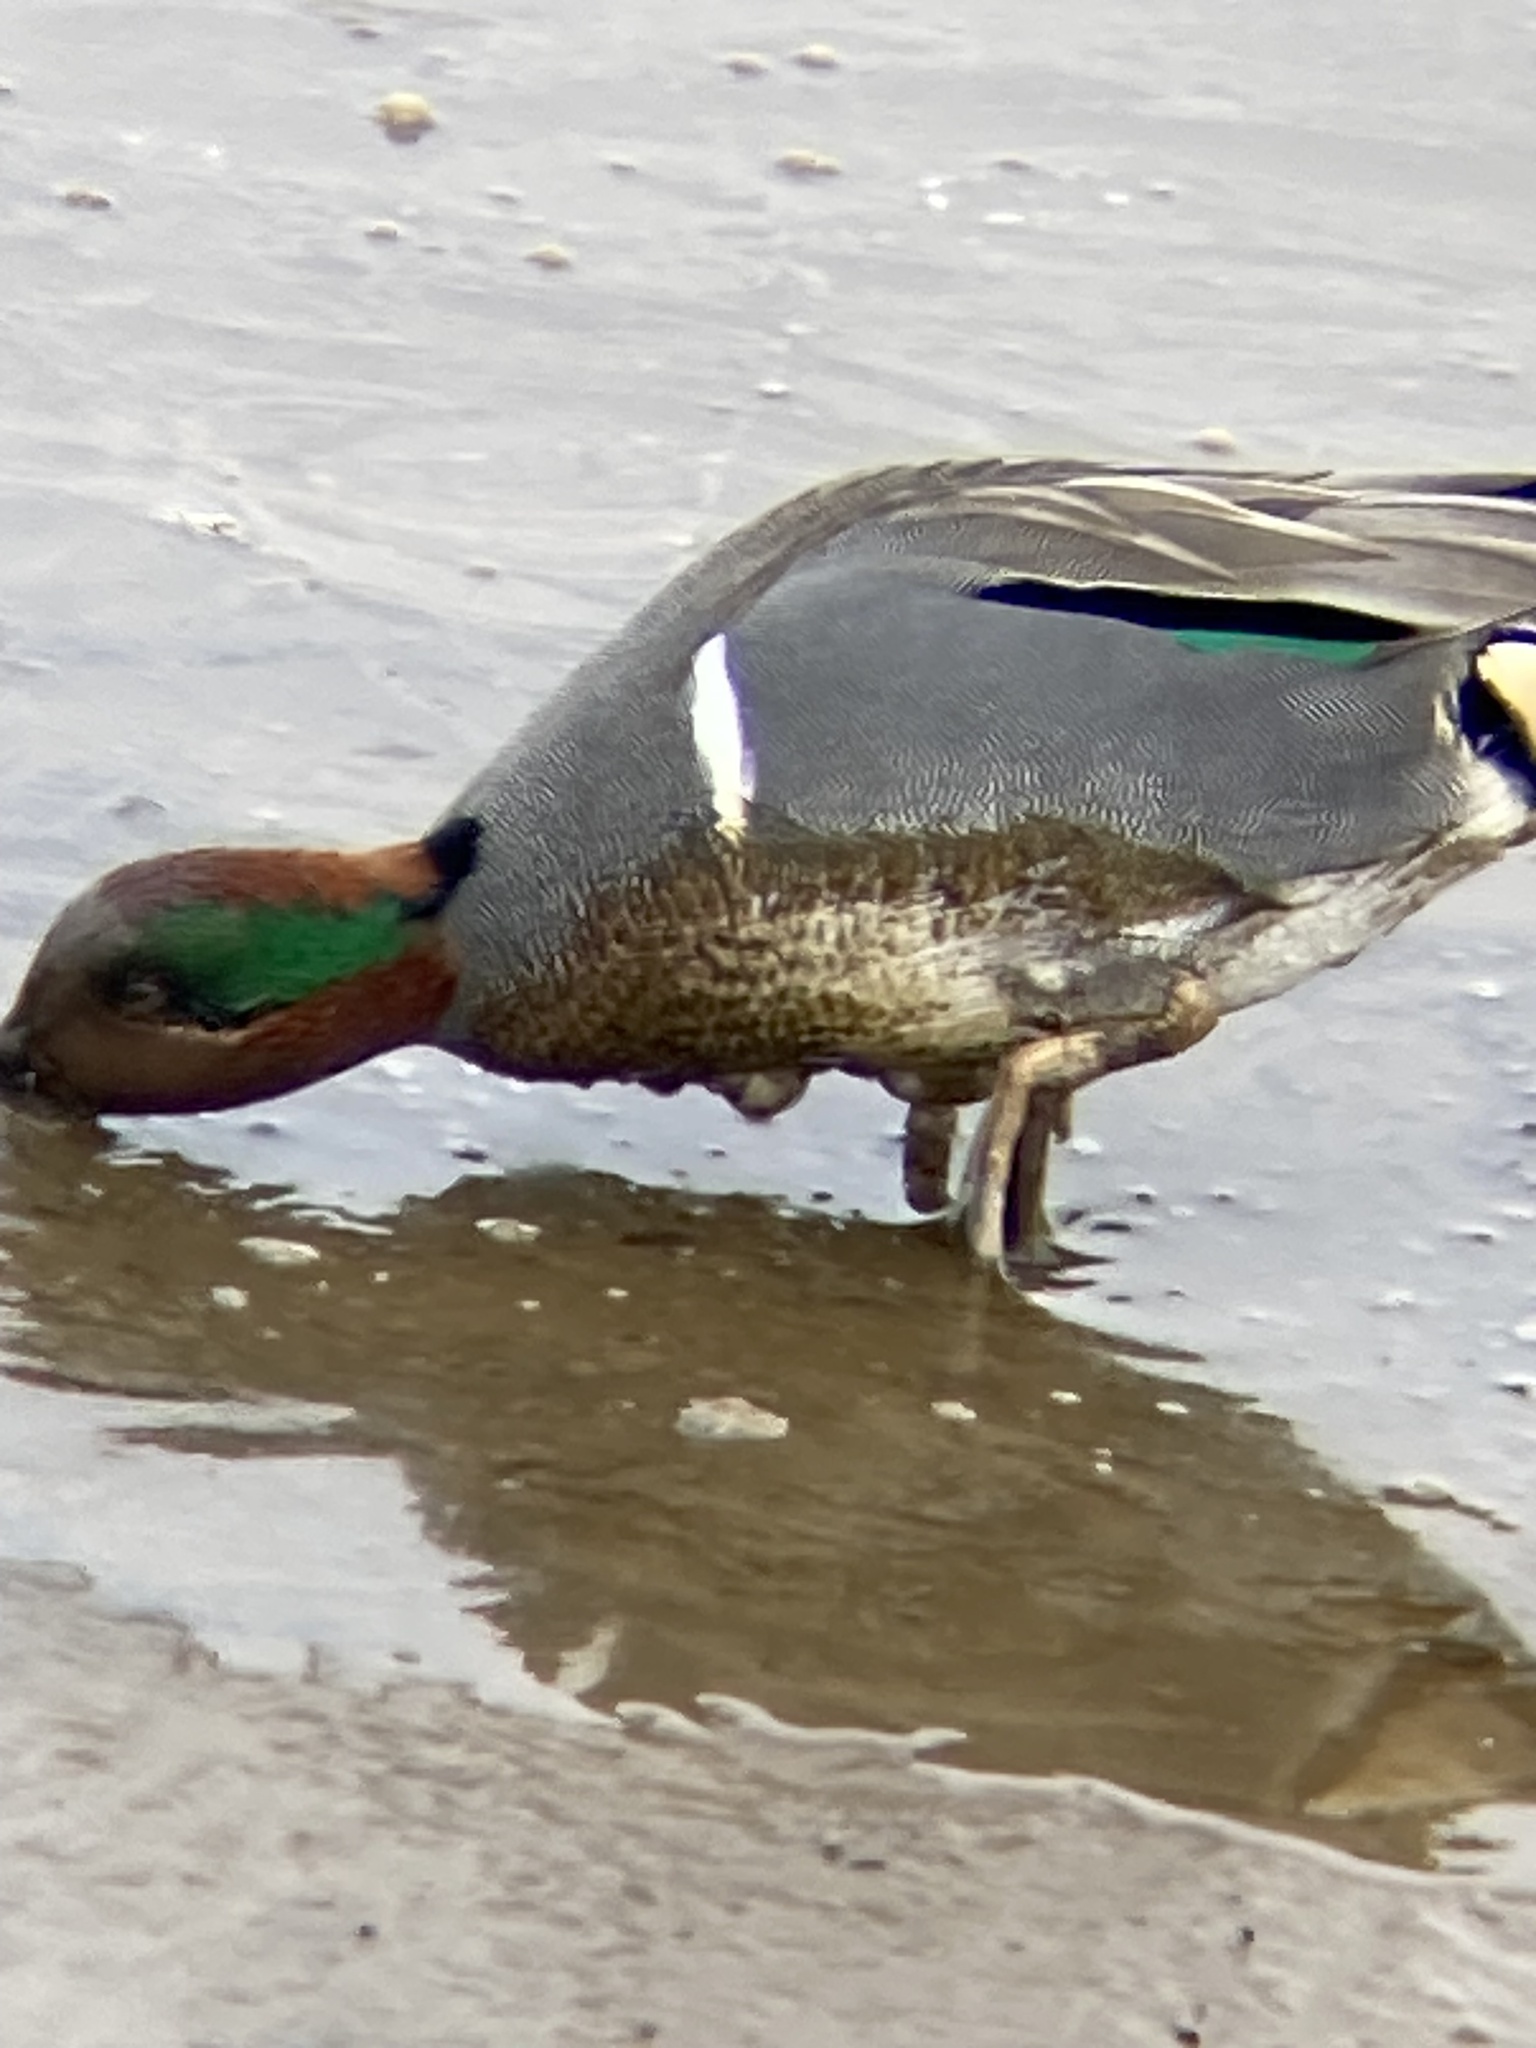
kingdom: Animalia
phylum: Chordata
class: Aves
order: Anseriformes
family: Anatidae
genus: Anas
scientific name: Anas crecca
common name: Eurasian teal
